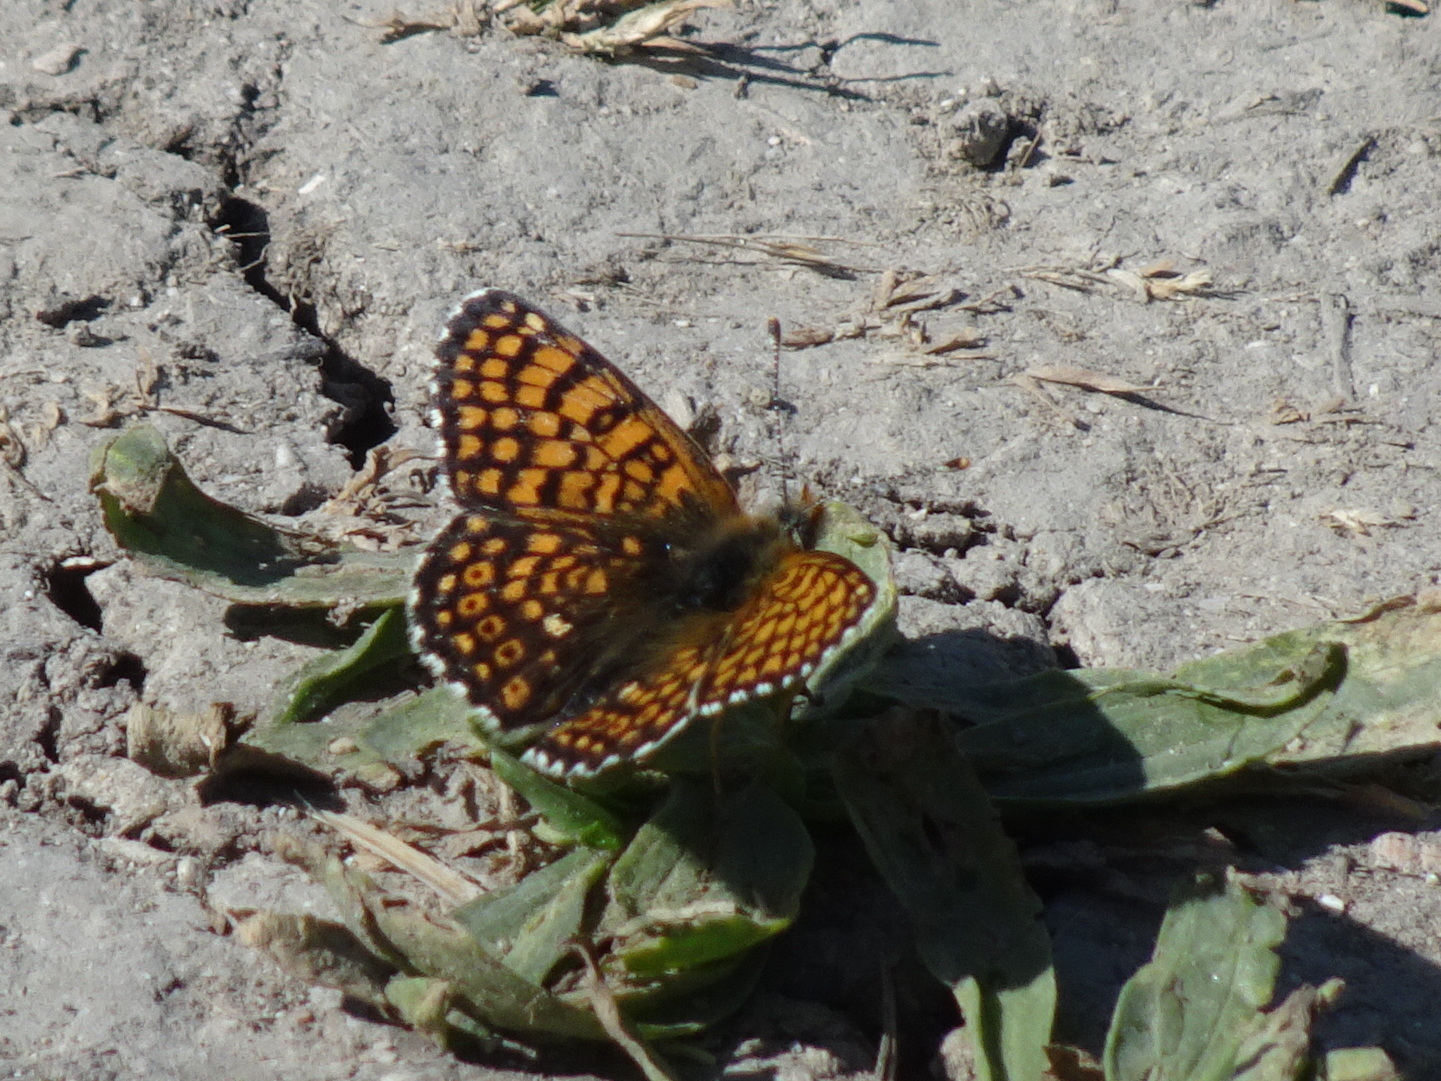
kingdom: Animalia
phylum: Arthropoda
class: Insecta
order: Lepidoptera
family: Nymphalidae
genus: Melitaea
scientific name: Melitaea cinxia
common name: Glanville fritillary
